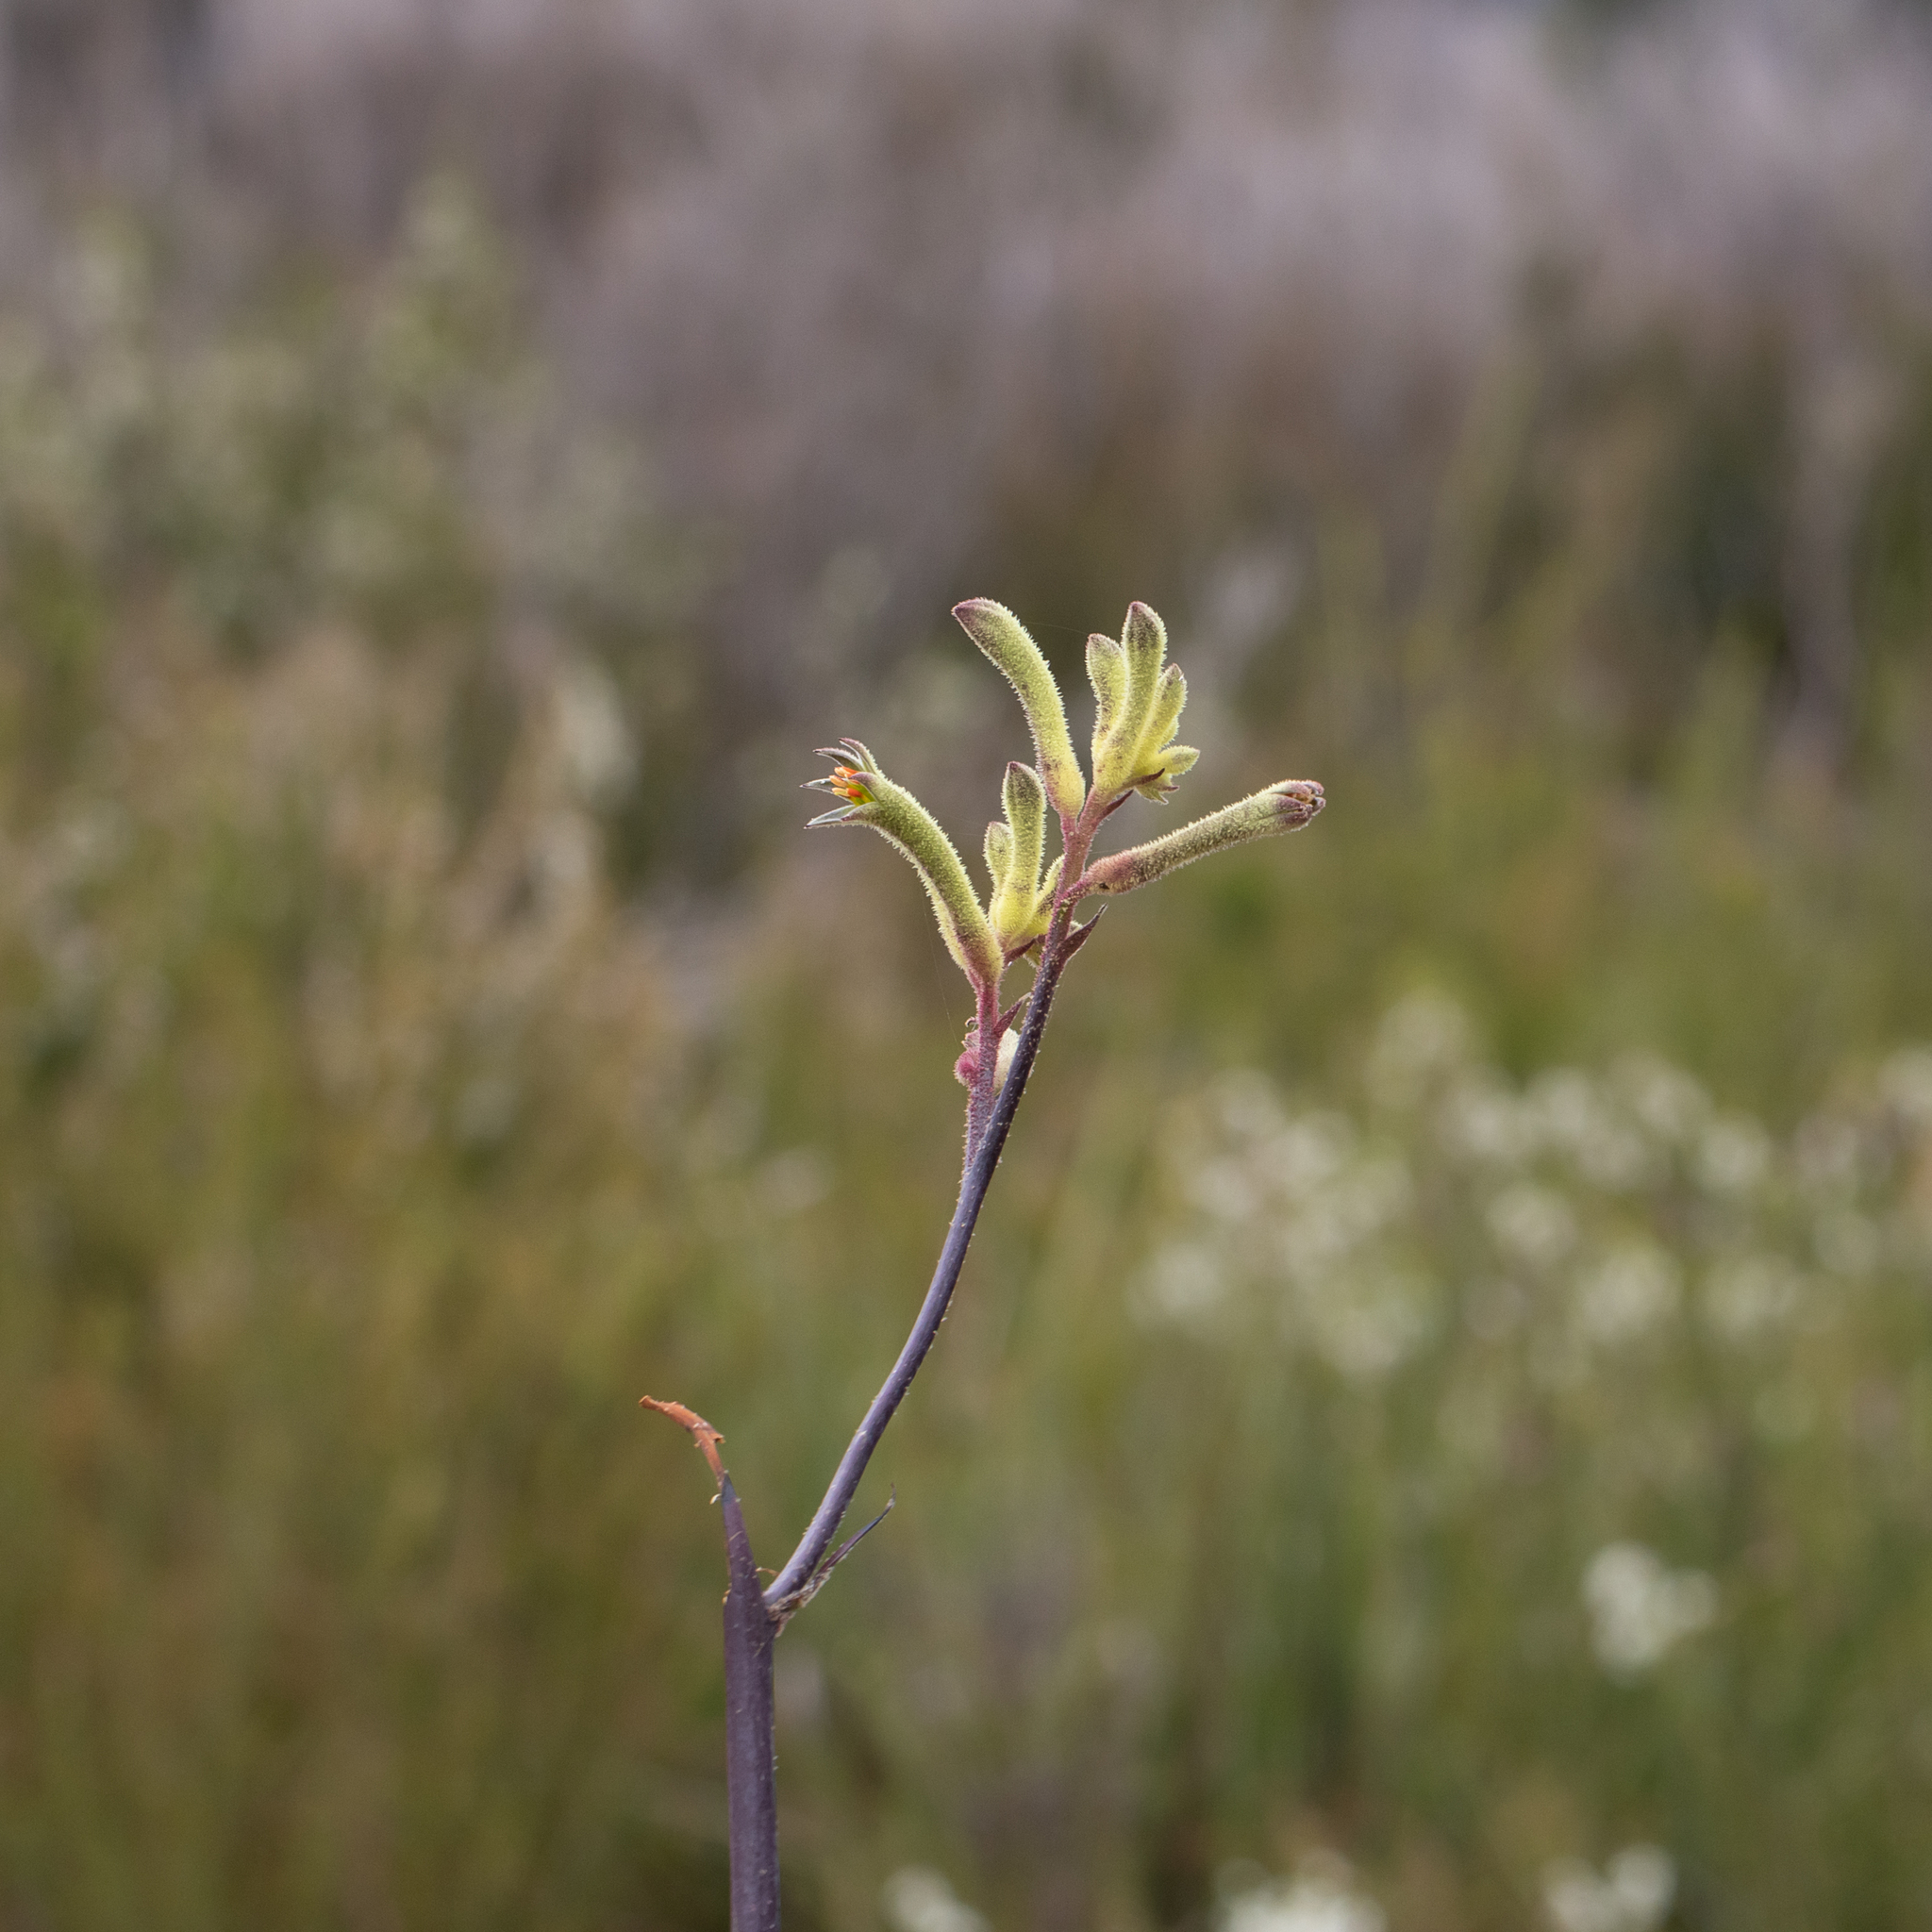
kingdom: Plantae
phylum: Tracheophyta
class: Liliopsida
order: Commelinales
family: Haemodoraceae
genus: Anigozanthos
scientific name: Anigozanthos flavidus
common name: Evergreen kangaroo-paw
